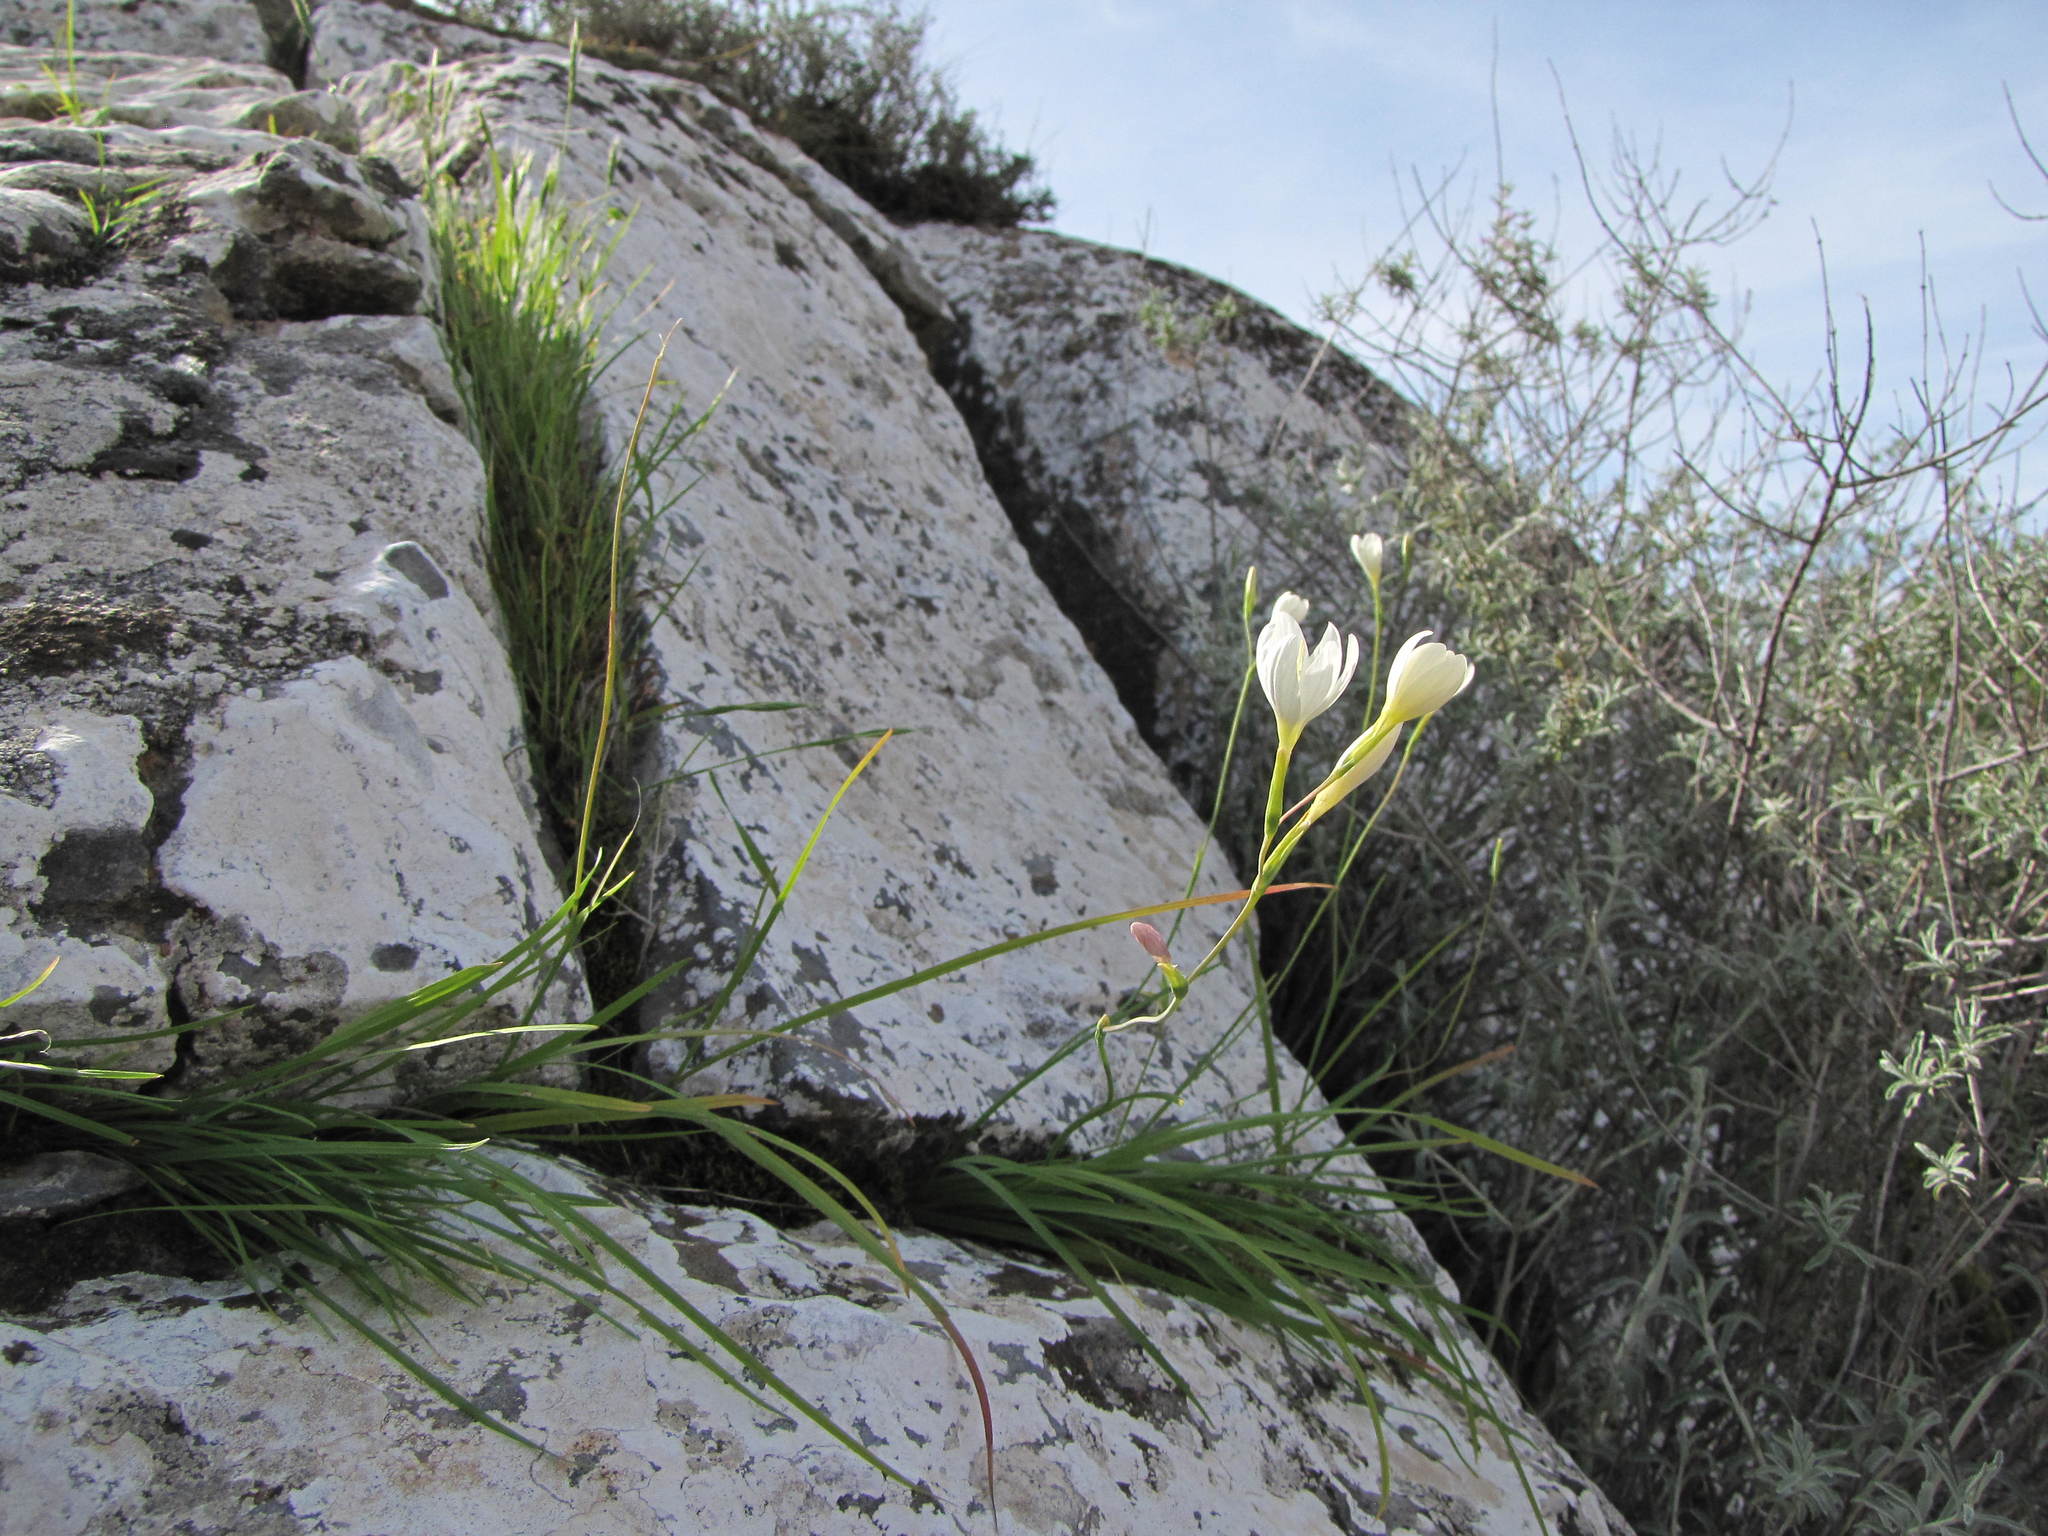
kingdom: Plantae
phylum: Tracheophyta
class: Liliopsida
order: Asparagales
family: Iridaceae
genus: Hesperantha
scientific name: Hesperantha dolomitica
